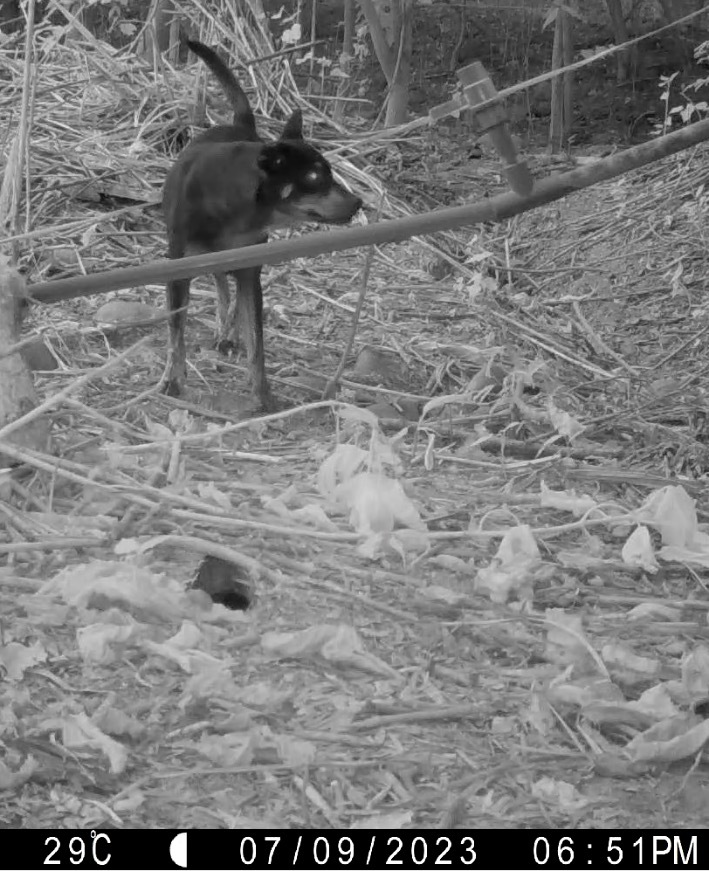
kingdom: Animalia
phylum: Chordata
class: Mammalia
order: Carnivora
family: Canidae
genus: Canis
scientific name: Canis lupus
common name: Gray wolf
